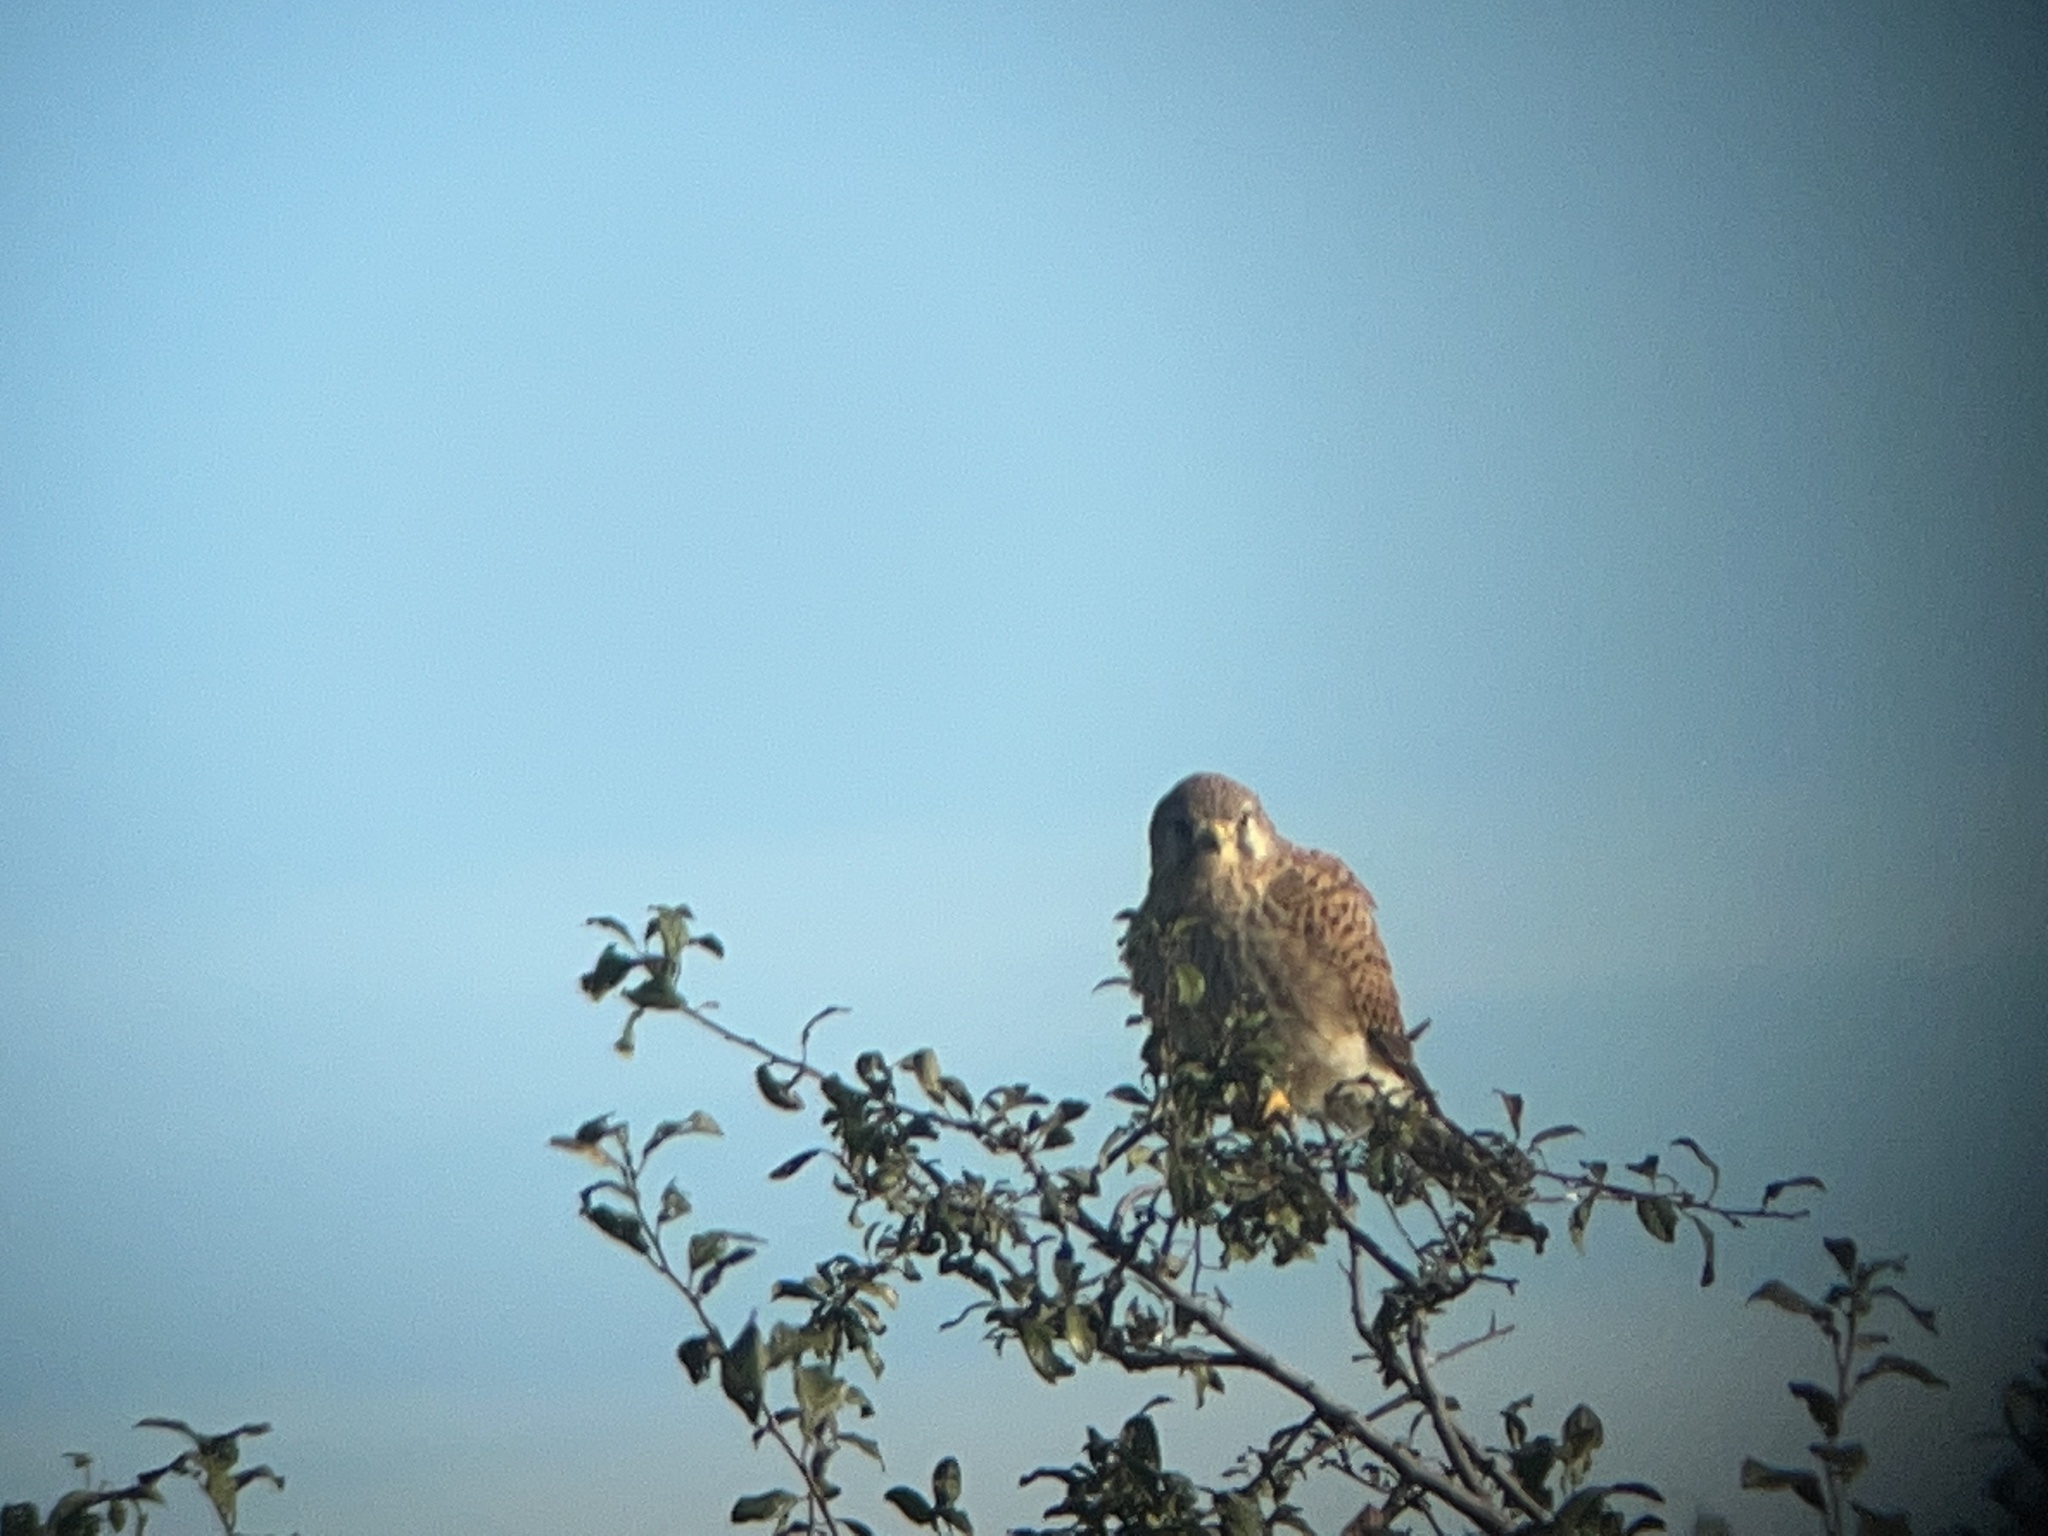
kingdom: Animalia
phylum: Chordata
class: Aves
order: Falconiformes
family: Falconidae
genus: Falco
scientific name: Falco tinnunculus
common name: Common kestrel
